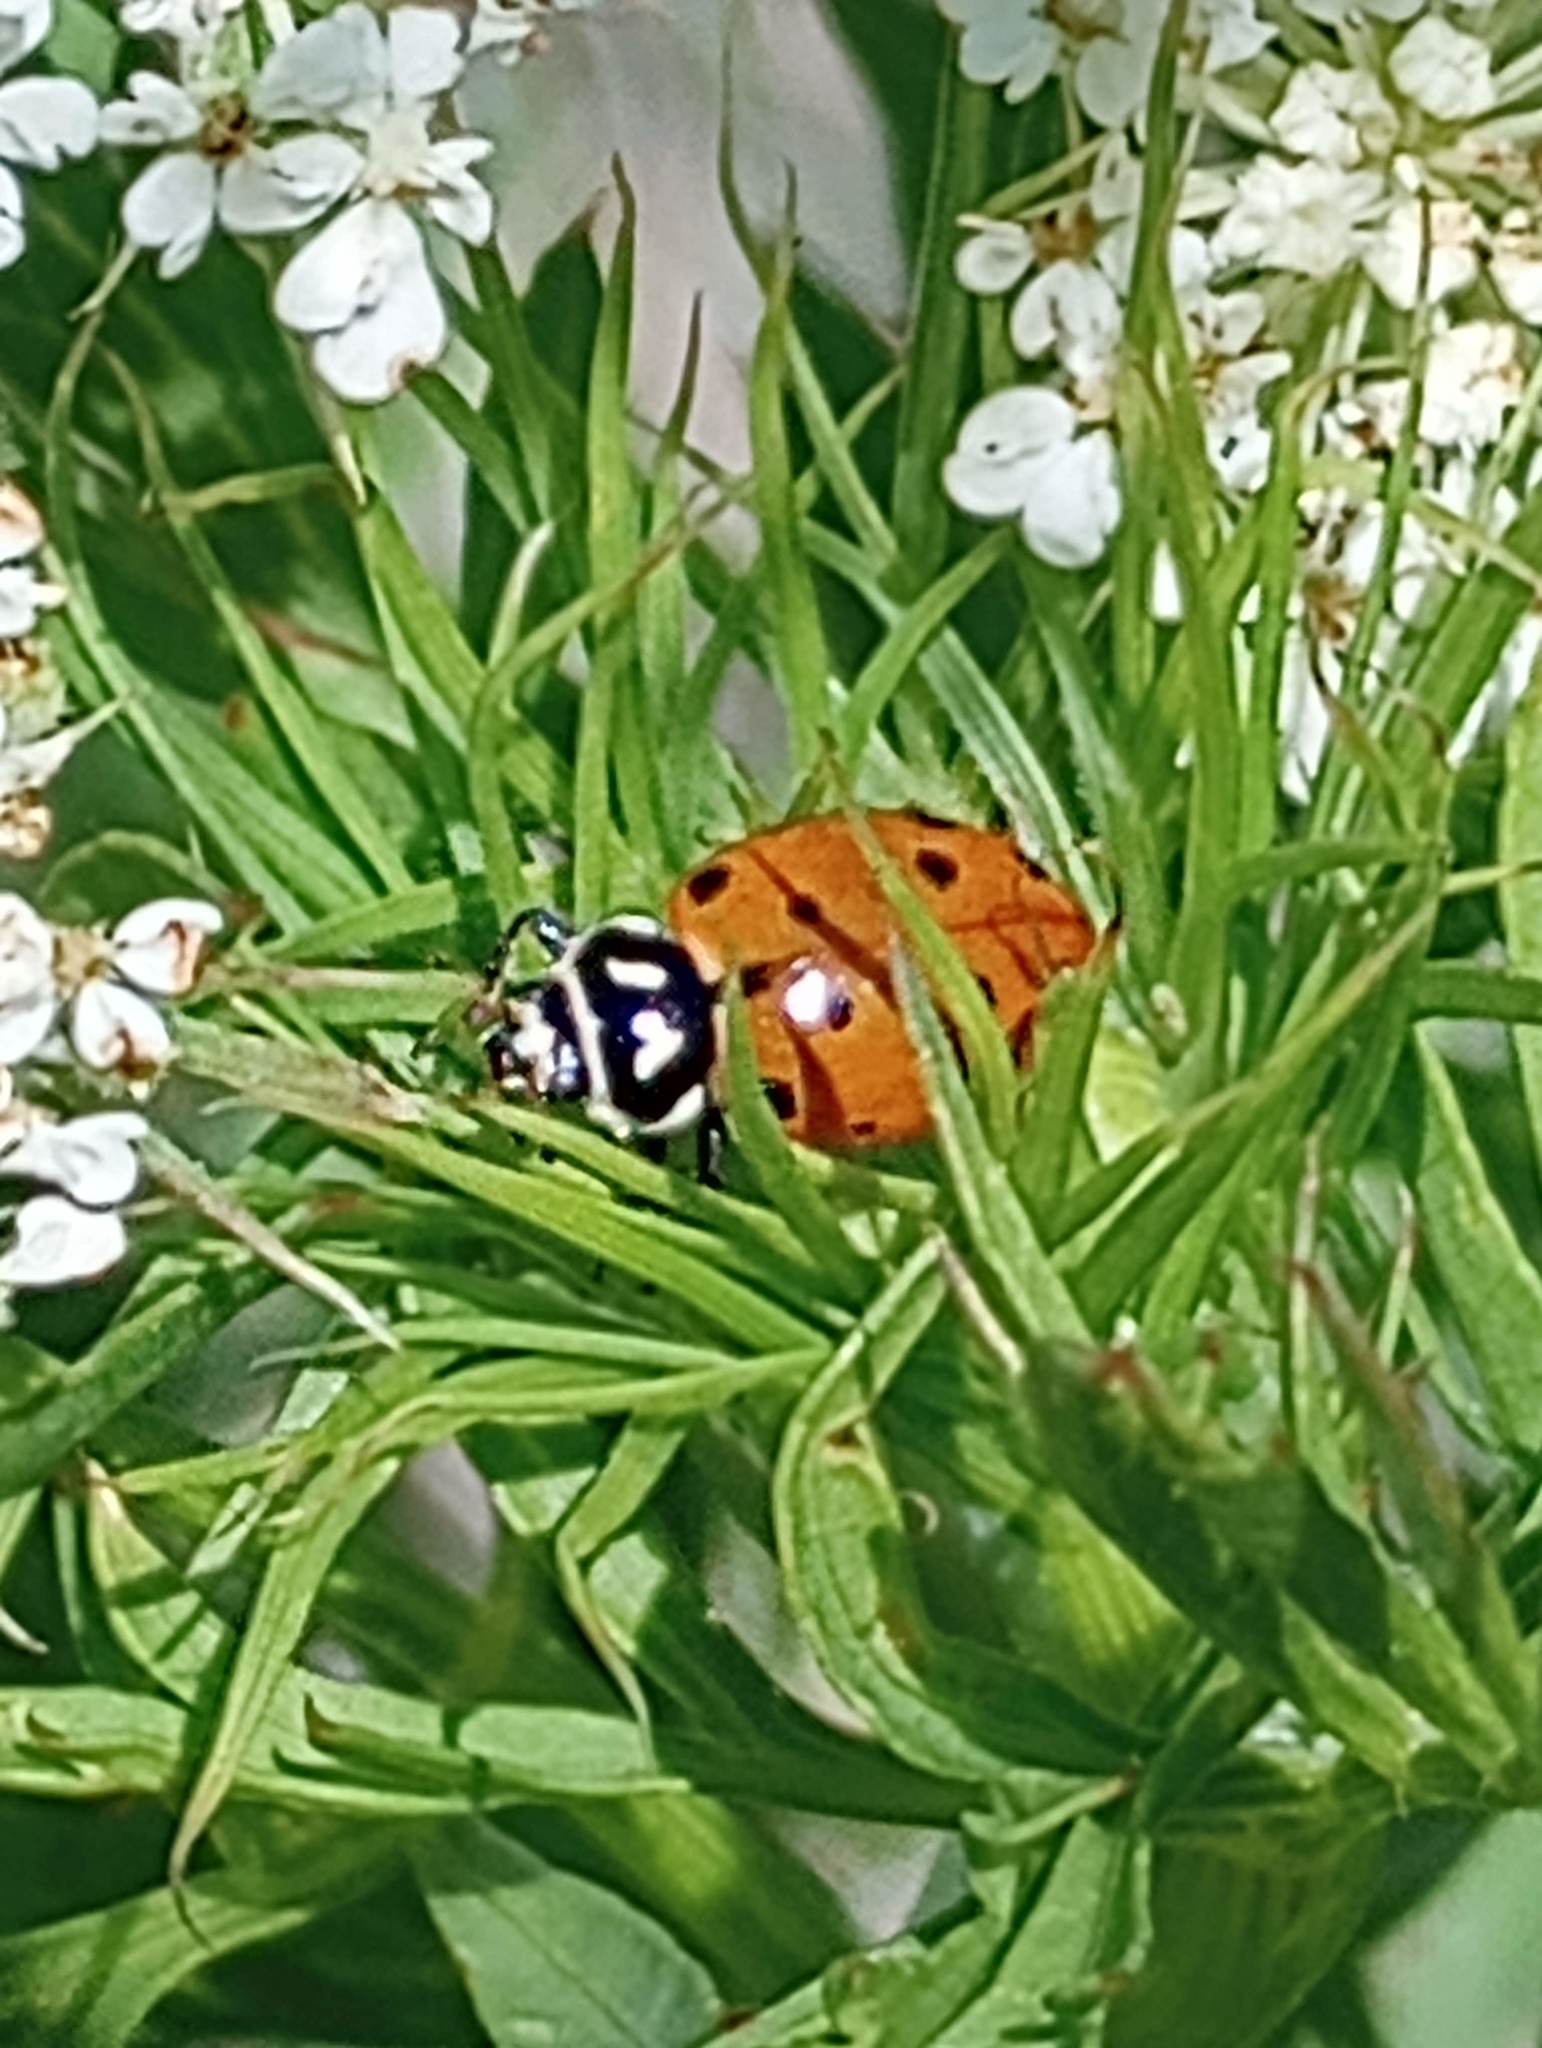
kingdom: Animalia
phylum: Arthropoda
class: Insecta
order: Coleoptera
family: Coccinellidae
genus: Hippodamia
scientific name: Hippodamia convergens
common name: Convergent lady beetle
